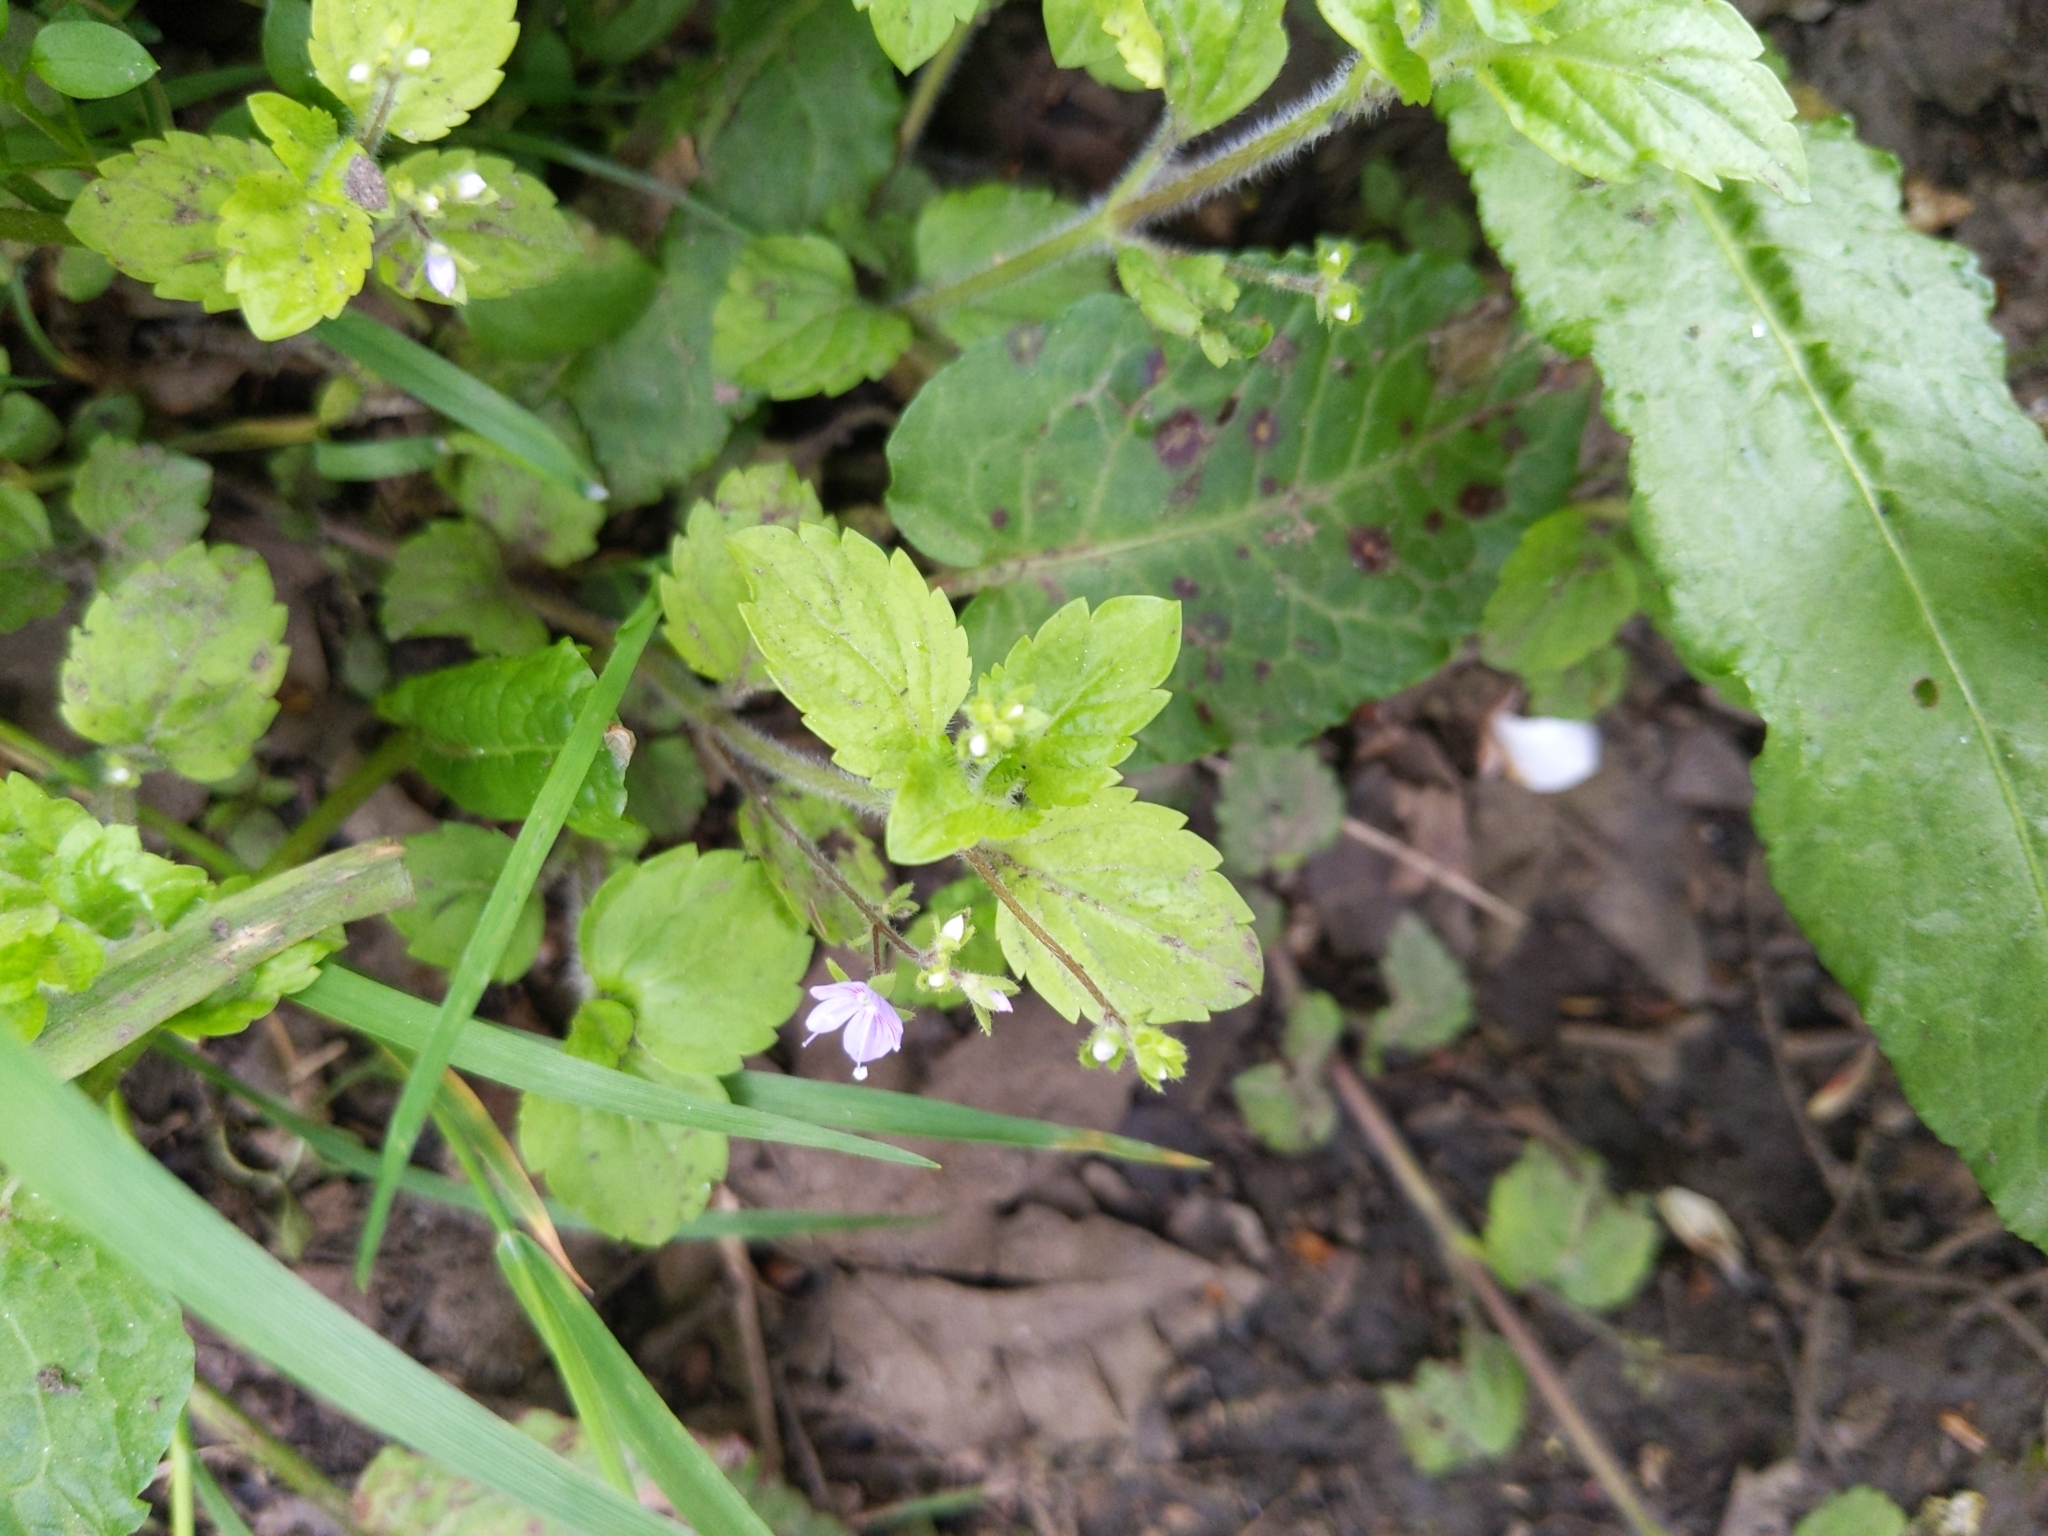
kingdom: Plantae
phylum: Tracheophyta
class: Magnoliopsida
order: Lamiales
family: Plantaginaceae
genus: Veronica
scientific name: Veronica montana
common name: Wood speedwell
